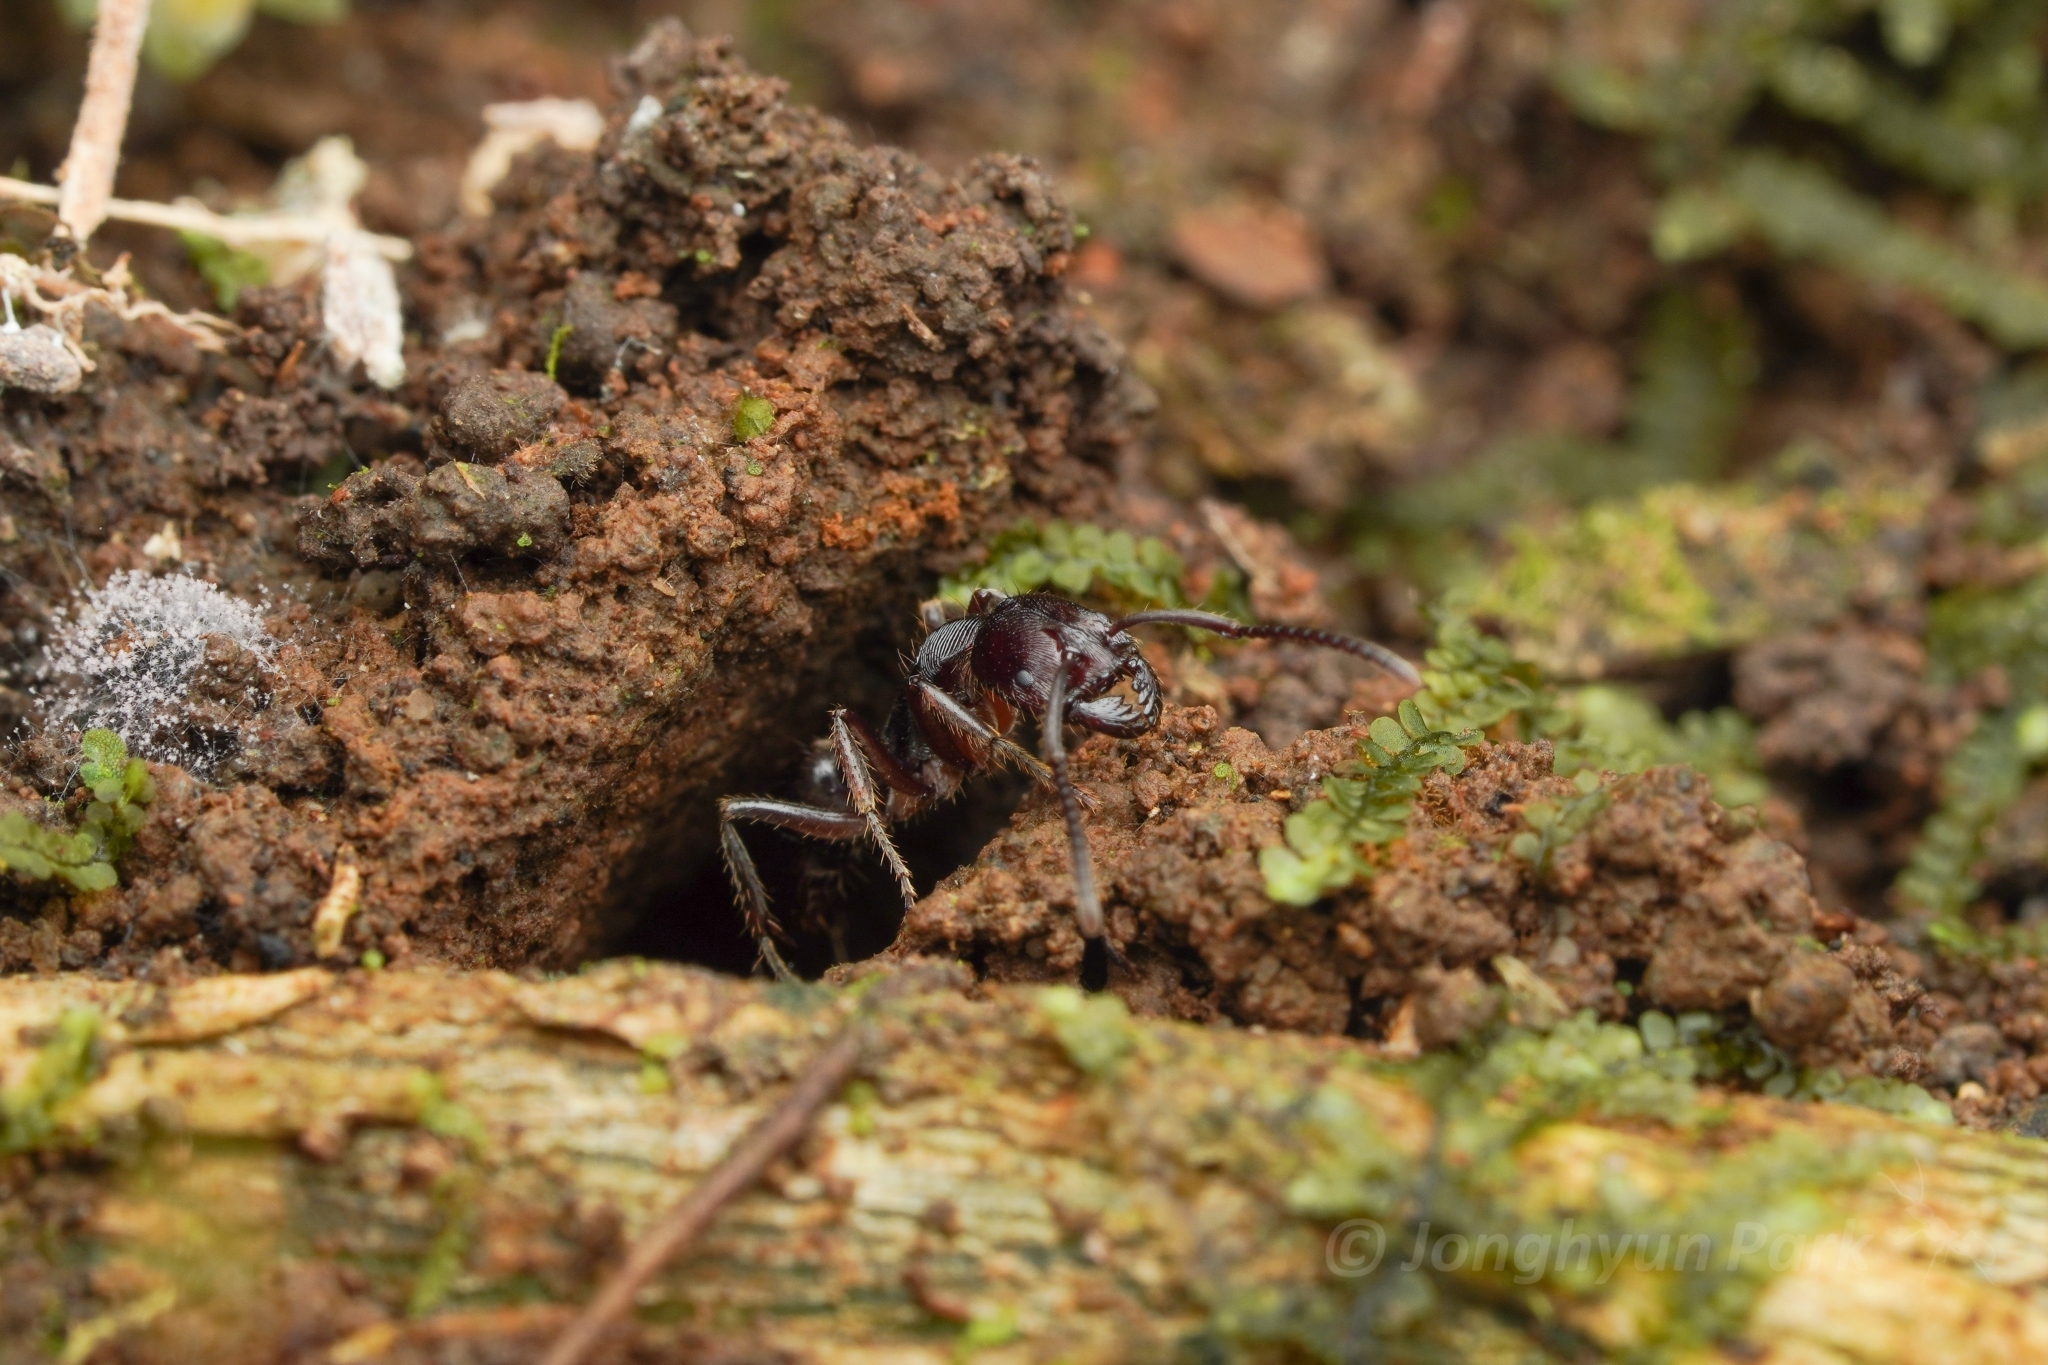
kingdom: Animalia
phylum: Arthropoda
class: Insecta
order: Hymenoptera
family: Formicidae
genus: Odontoponera
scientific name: Odontoponera transversa
